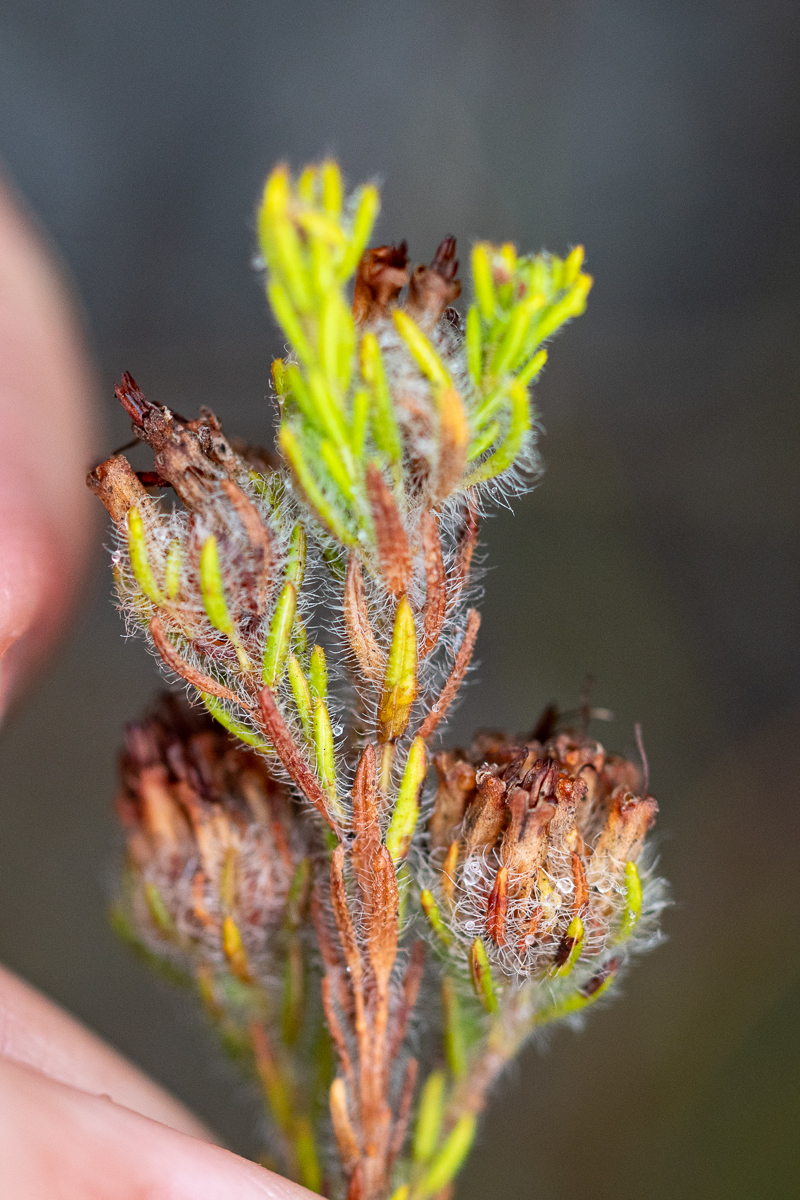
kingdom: Plantae
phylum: Tracheophyta
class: Magnoliopsida
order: Ericales
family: Ericaceae
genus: Erica
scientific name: Erica barbigeroides
